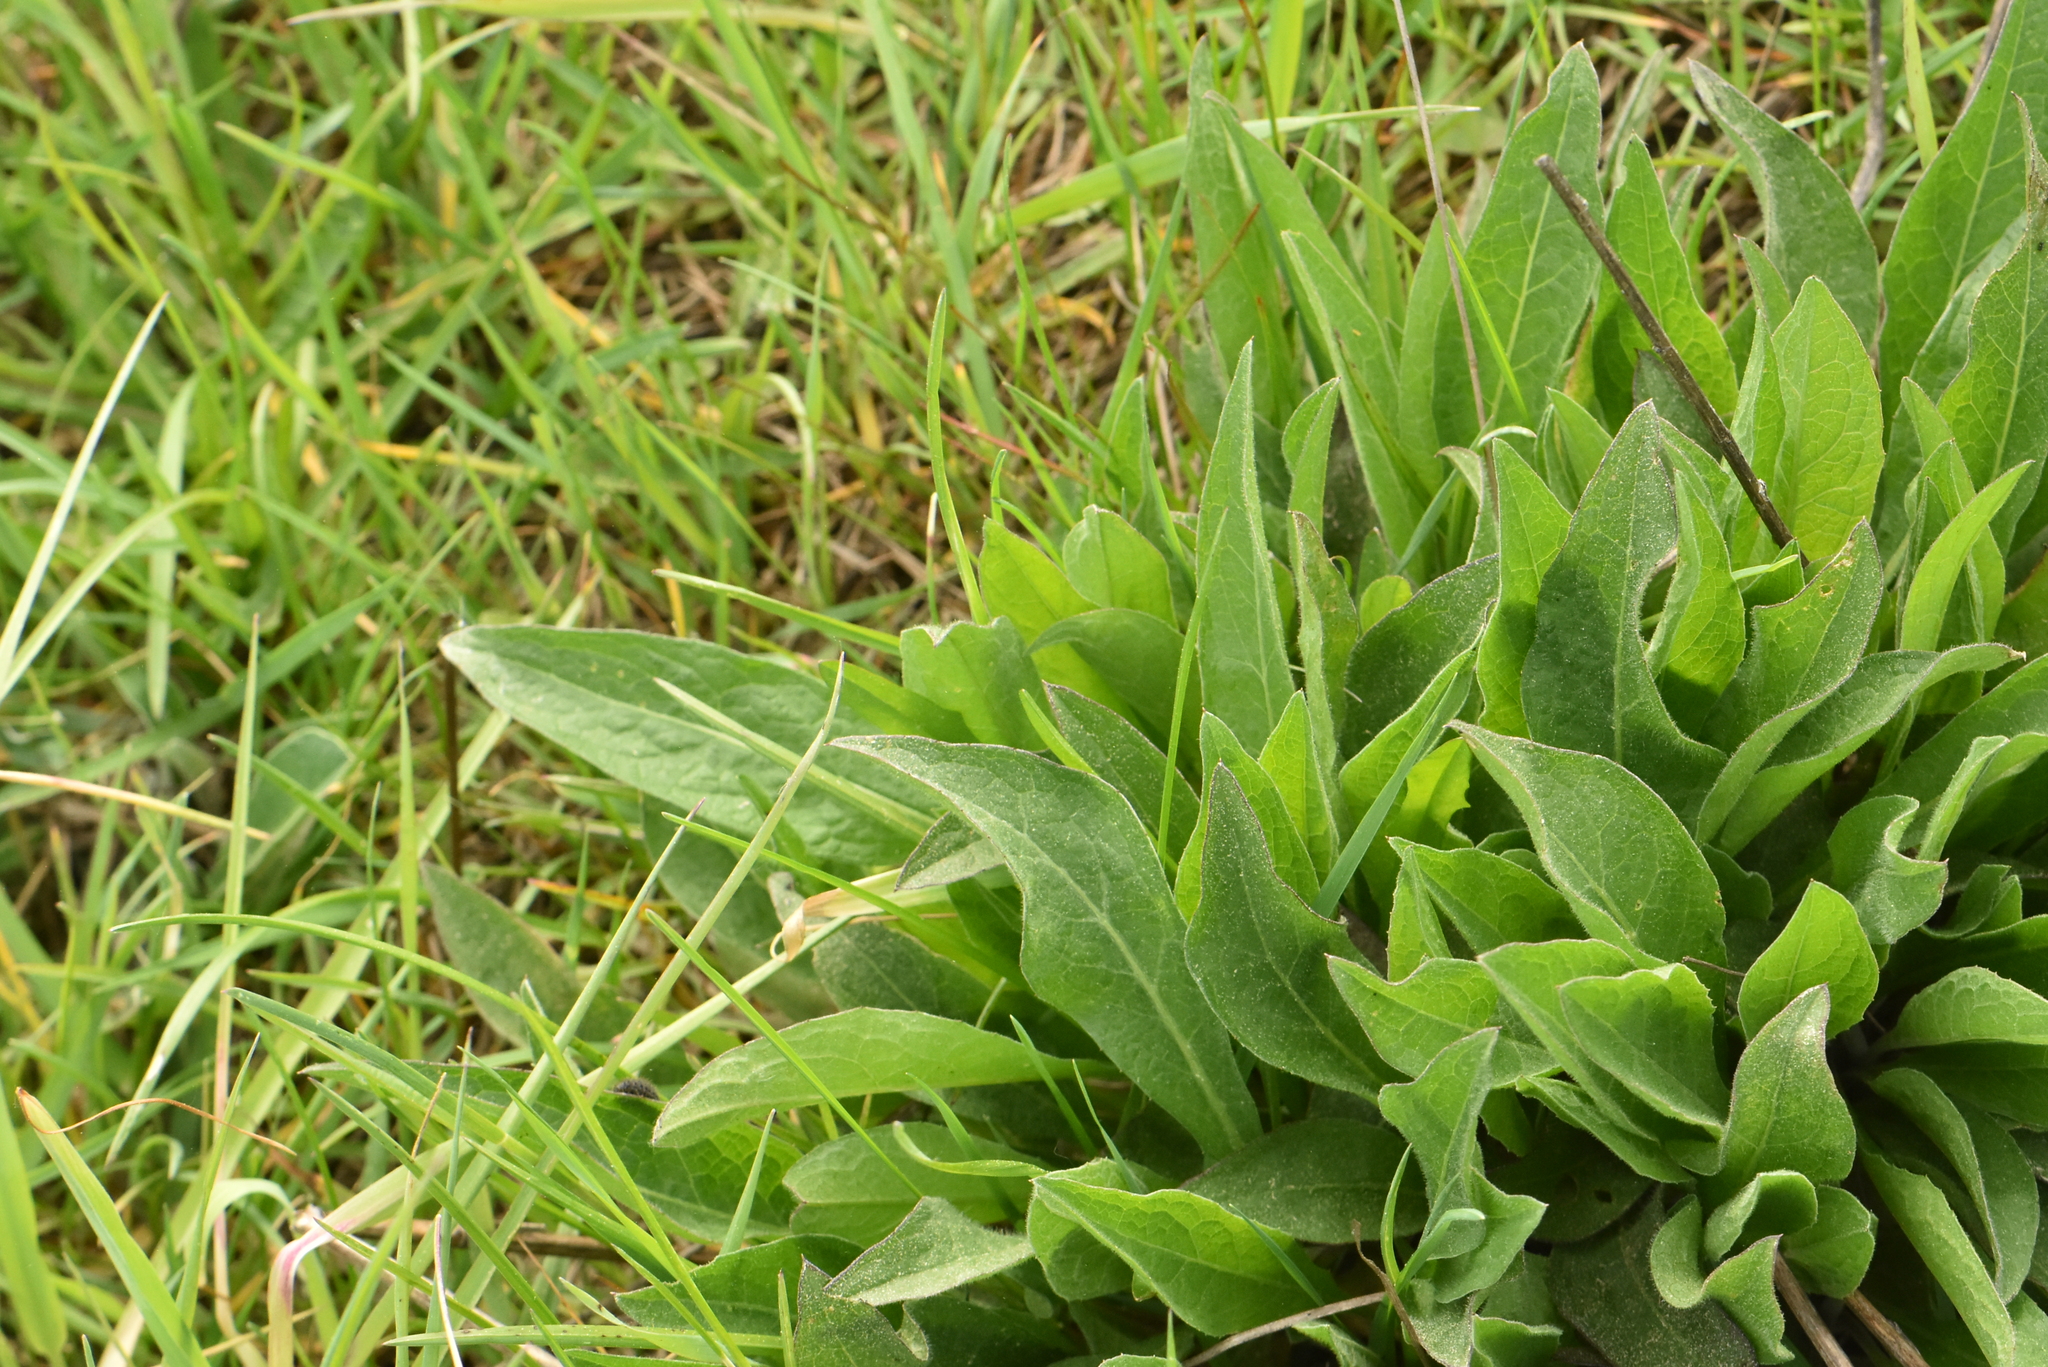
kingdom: Plantae
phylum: Tracheophyta
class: Magnoliopsida
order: Brassicales
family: Brassicaceae
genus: Bunias
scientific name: Bunias orientalis
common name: Warty-cabbage
